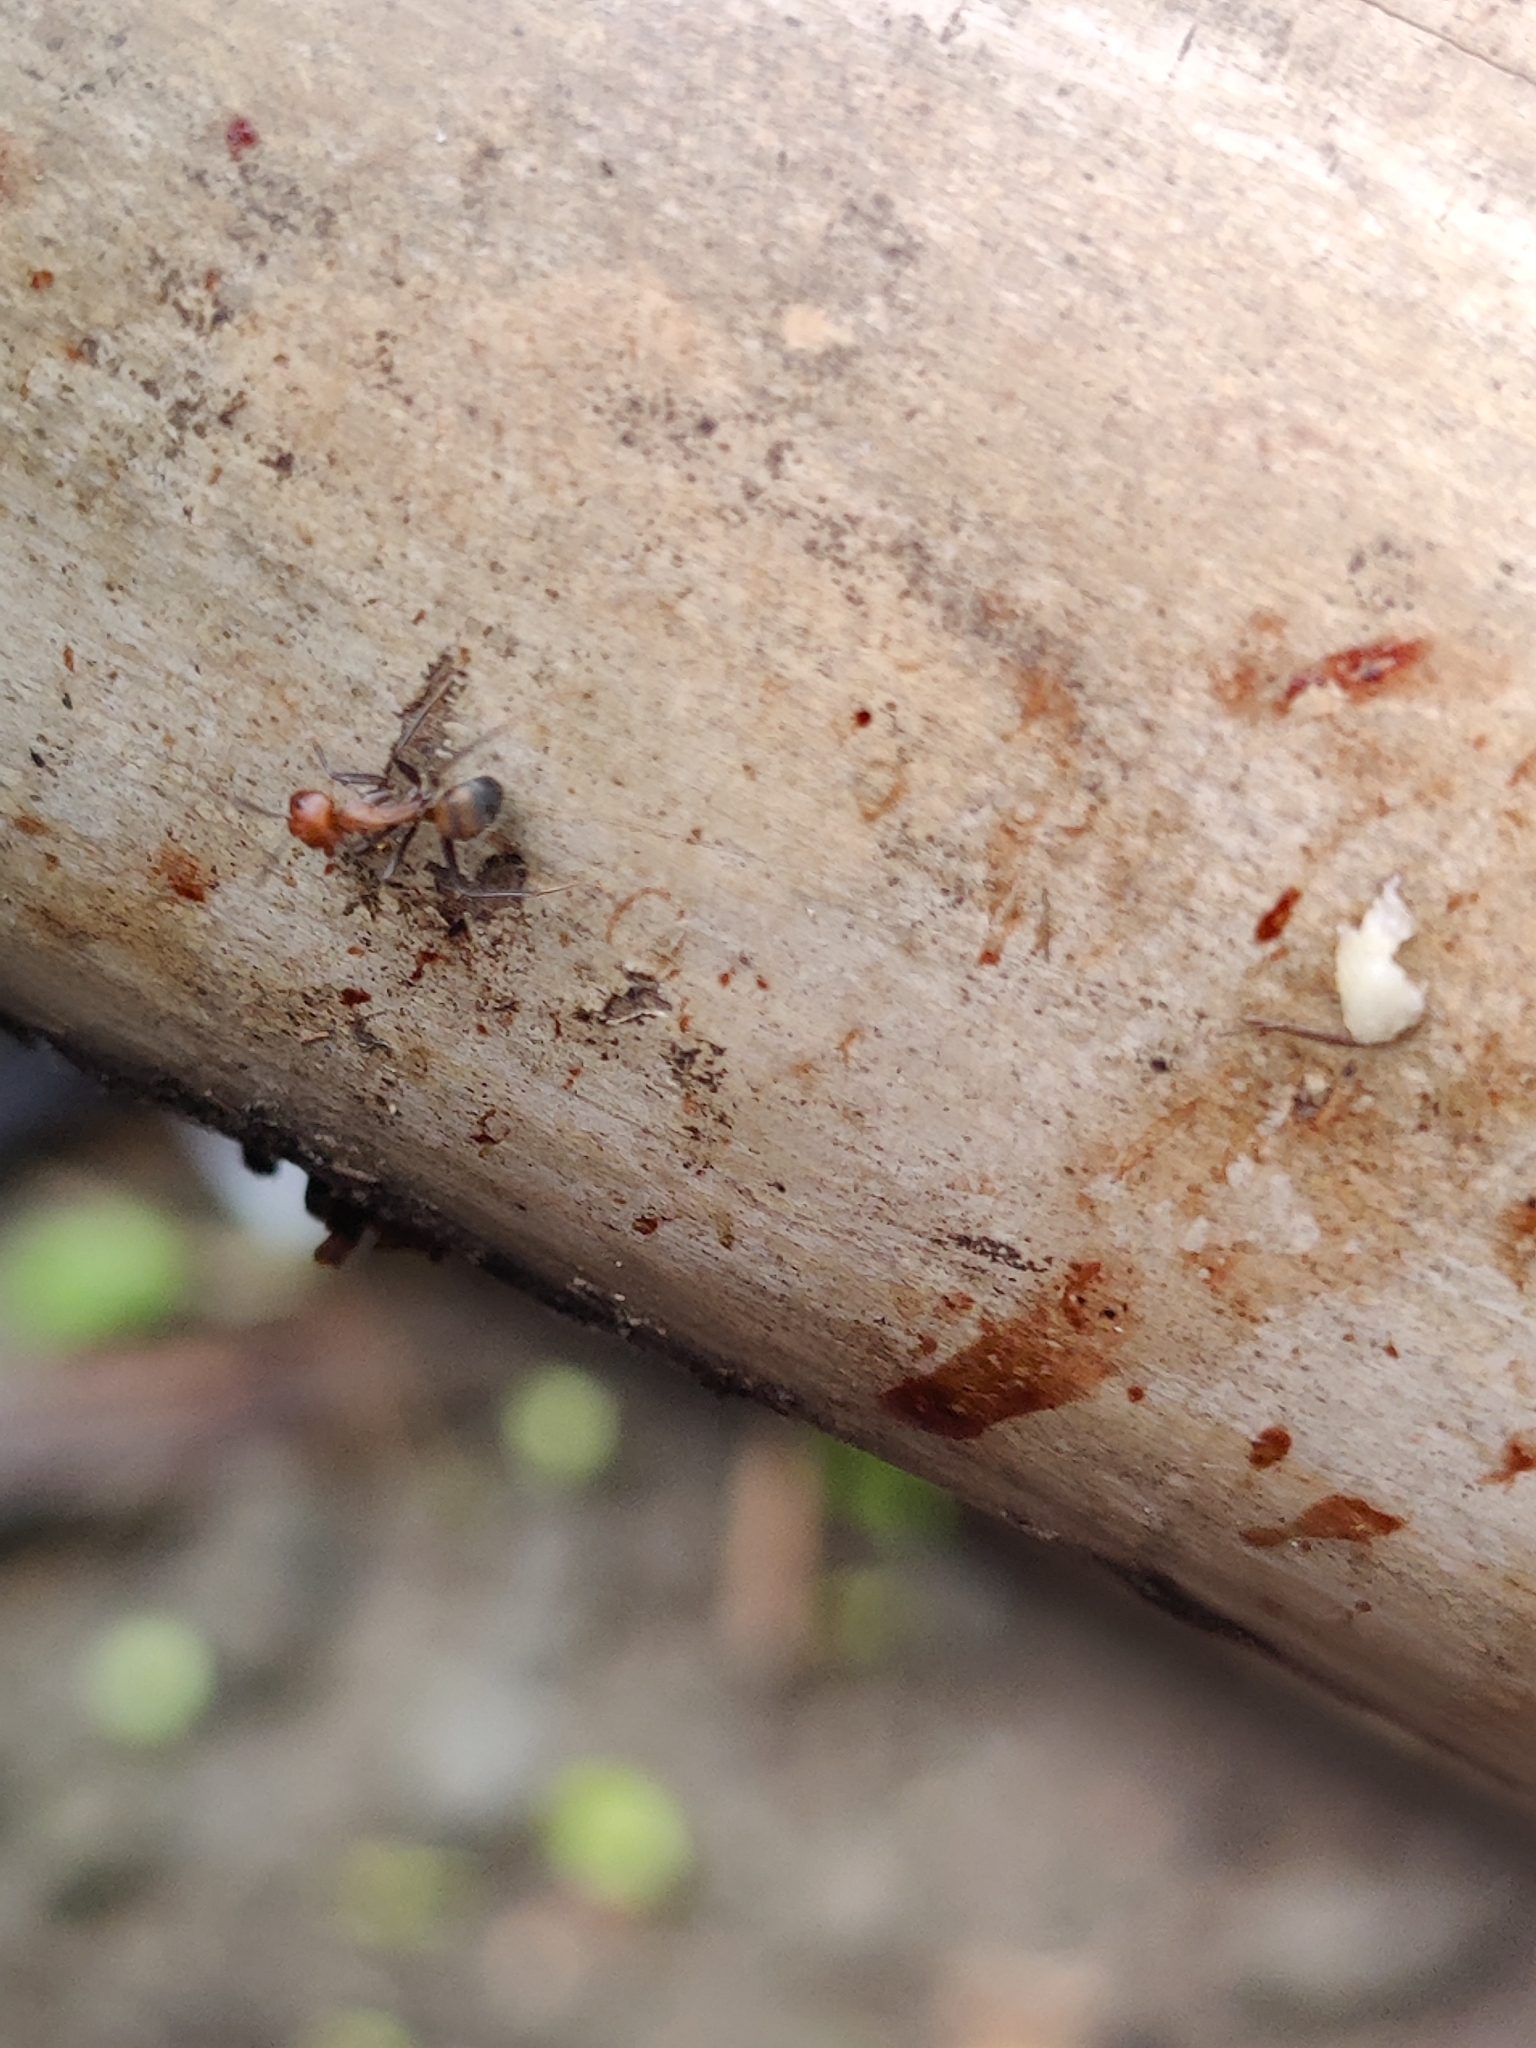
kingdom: Animalia
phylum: Arthropoda
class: Insecta
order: Hymenoptera
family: Formicidae
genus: Camponotus
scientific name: Camponotus nicobarensis
